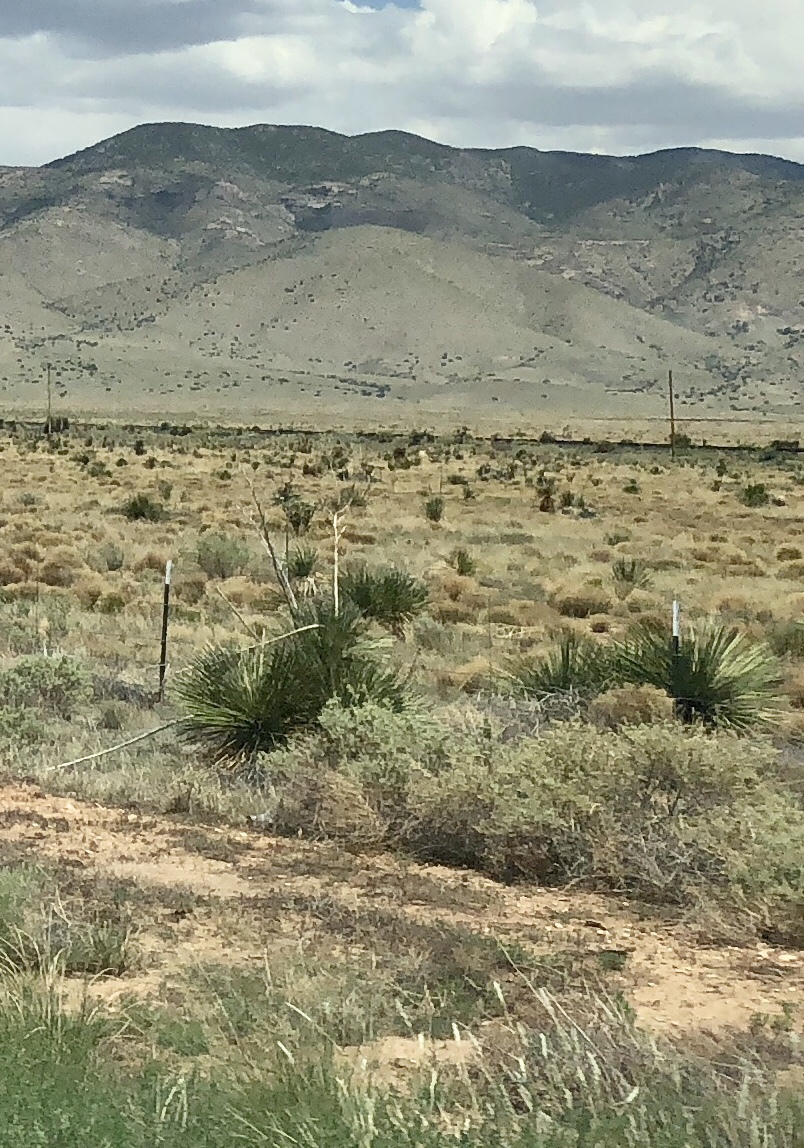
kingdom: Plantae
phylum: Tracheophyta
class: Liliopsida
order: Asparagales
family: Asparagaceae
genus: Yucca
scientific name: Yucca elata
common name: Palmella
